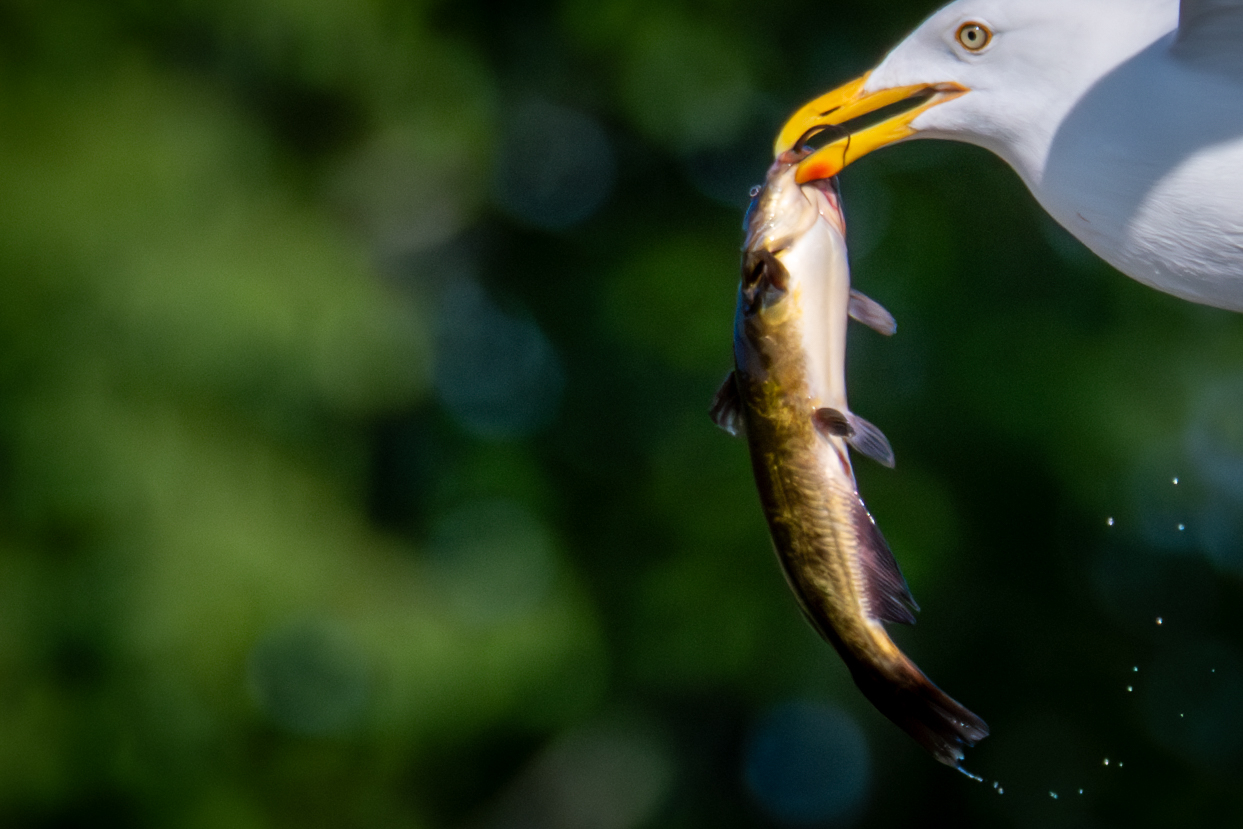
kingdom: Animalia
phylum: Chordata
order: Siluriformes
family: Ictaluridae
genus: Ameiurus
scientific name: Ameiurus nebulosus
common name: Brown bullhead
